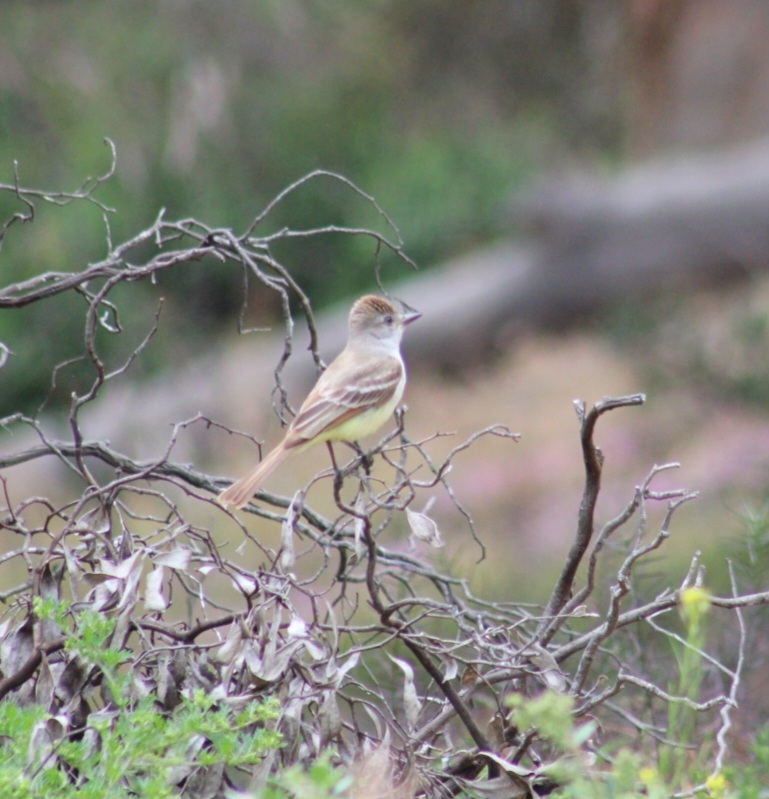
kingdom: Animalia
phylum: Chordata
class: Aves
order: Passeriformes
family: Tyrannidae
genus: Myiarchus
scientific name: Myiarchus cinerascens
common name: Ash-throated flycatcher
